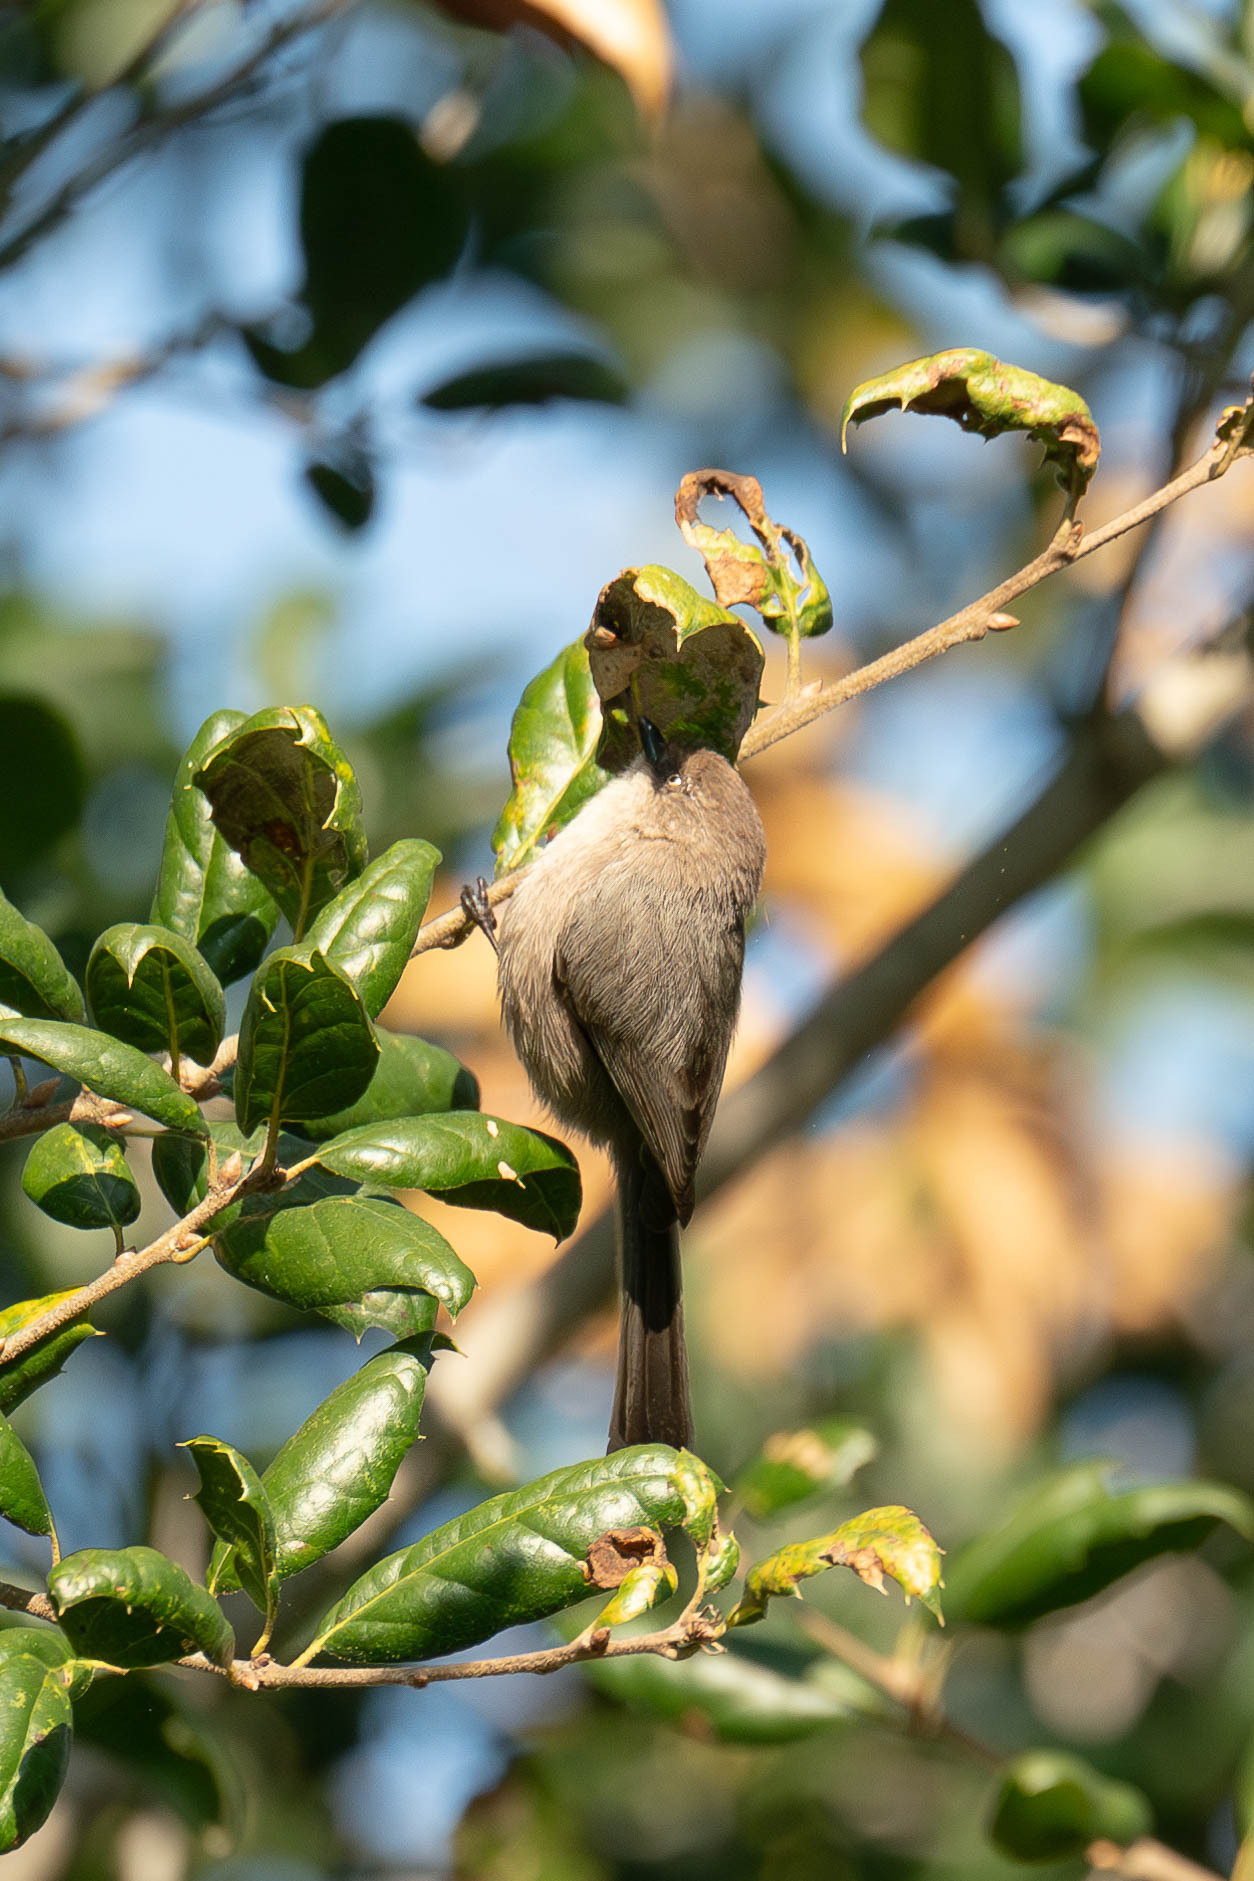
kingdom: Animalia
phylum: Chordata
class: Aves
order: Passeriformes
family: Aegithalidae
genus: Psaltriparus
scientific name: Psaltriparus minimus
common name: American bushtit
